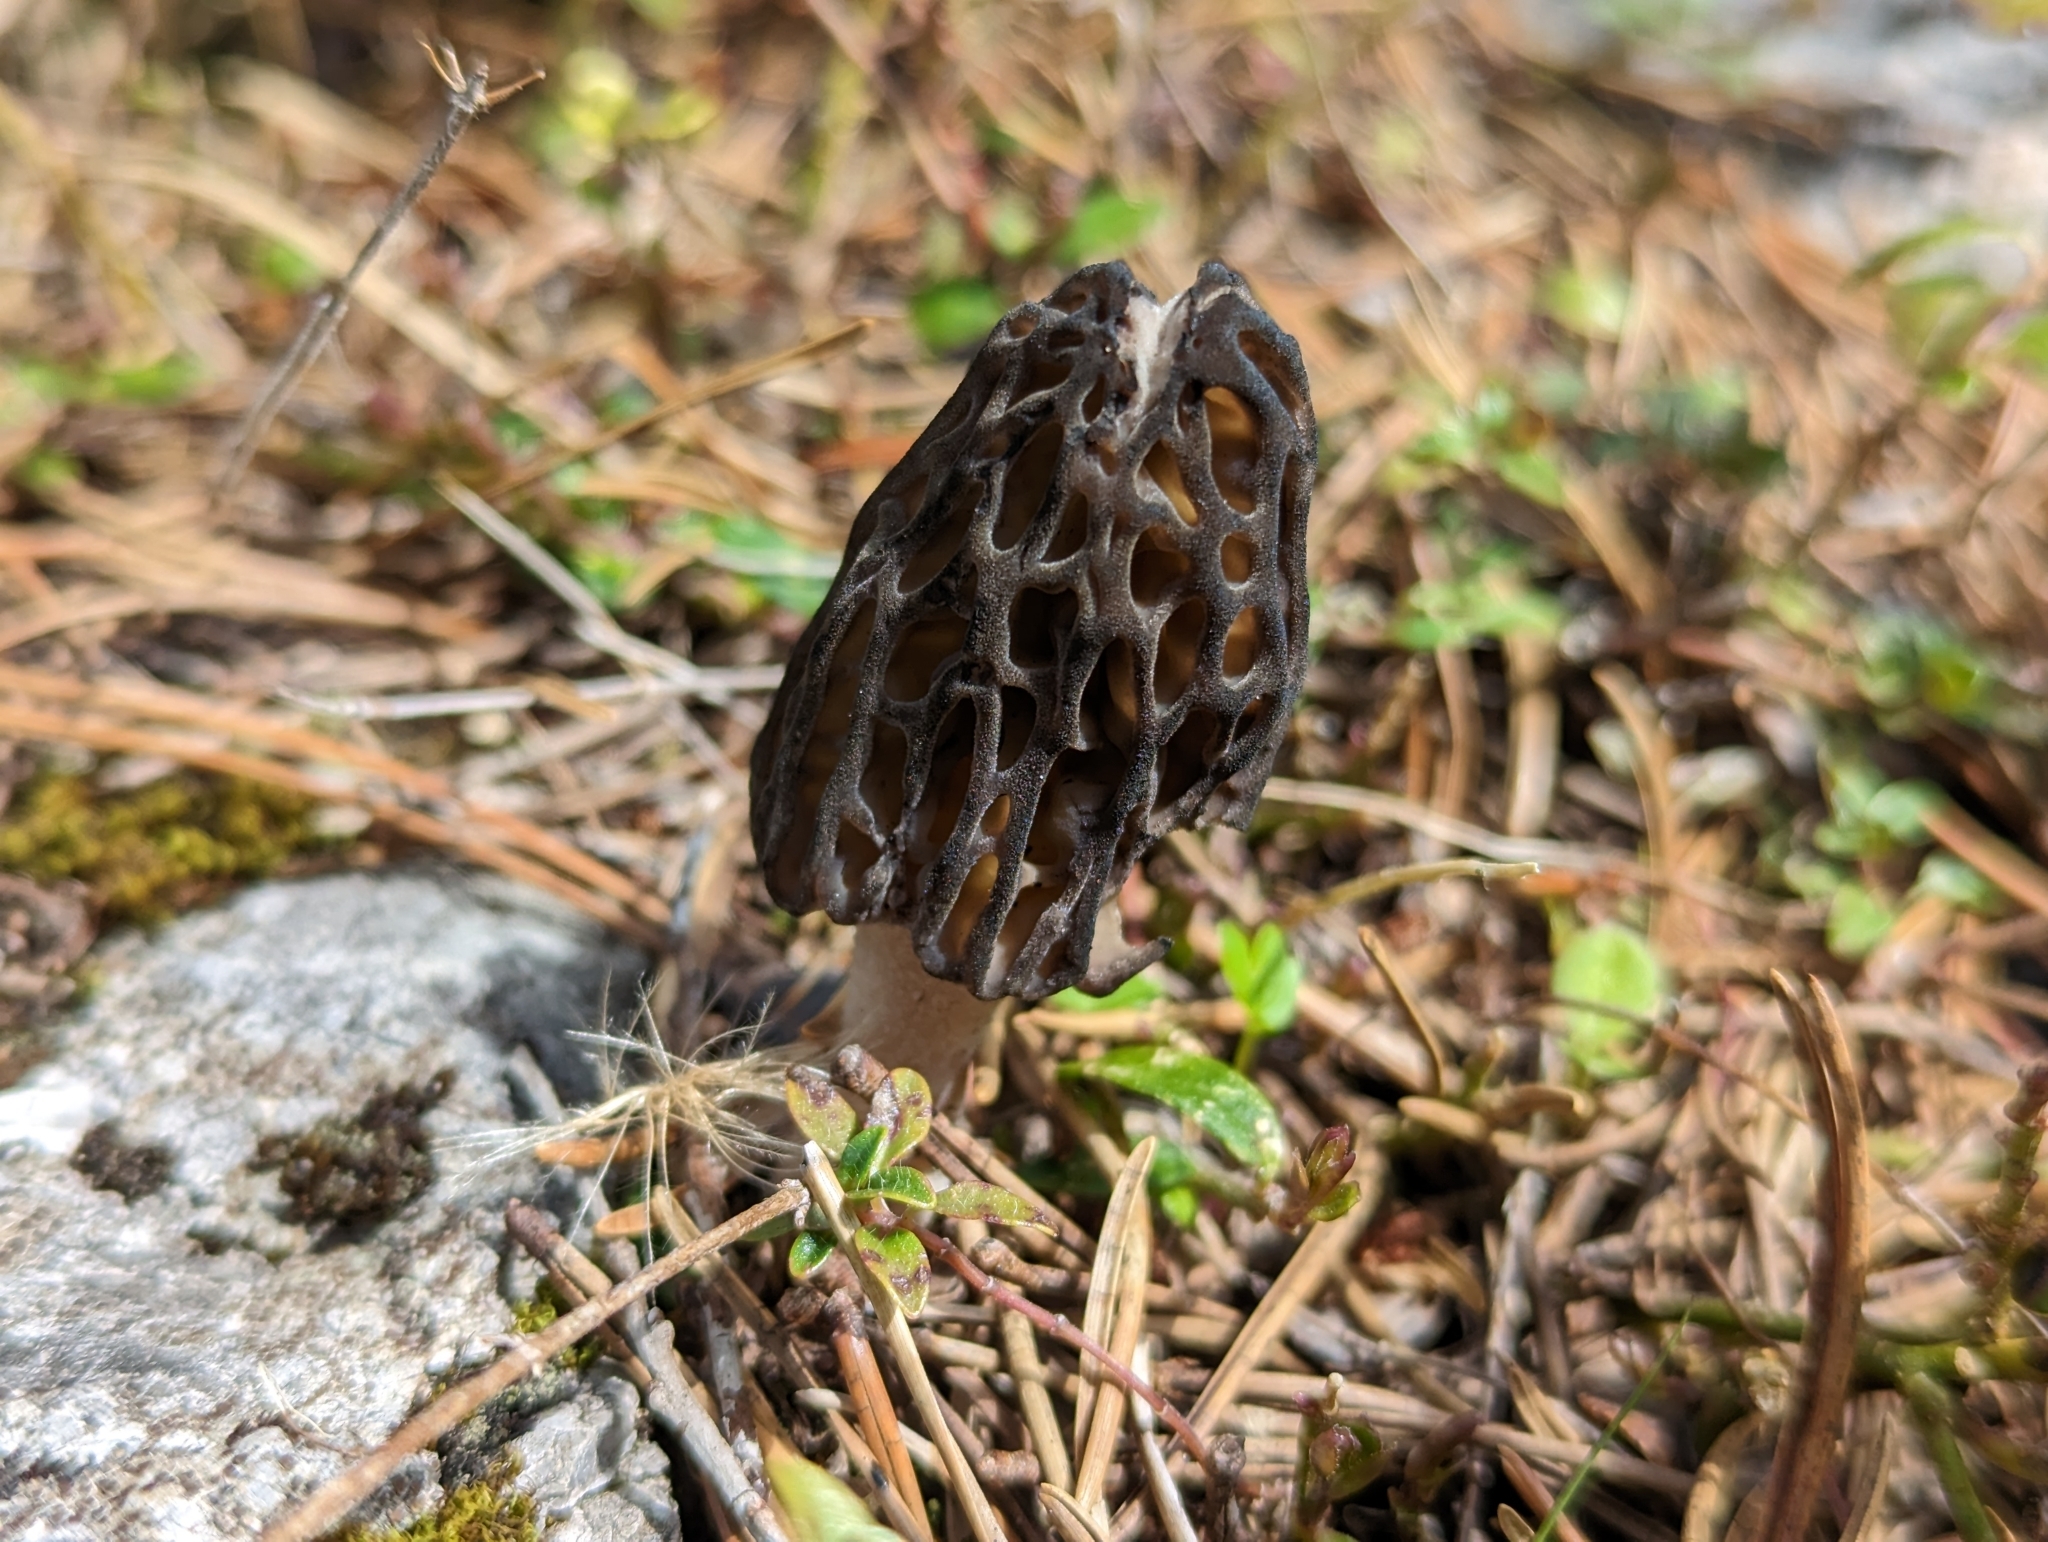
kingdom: Fungi
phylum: Ascomycota
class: Pezizomycetes
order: Pezizales
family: Morchellaceae
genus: Morchella
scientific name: Morchella
